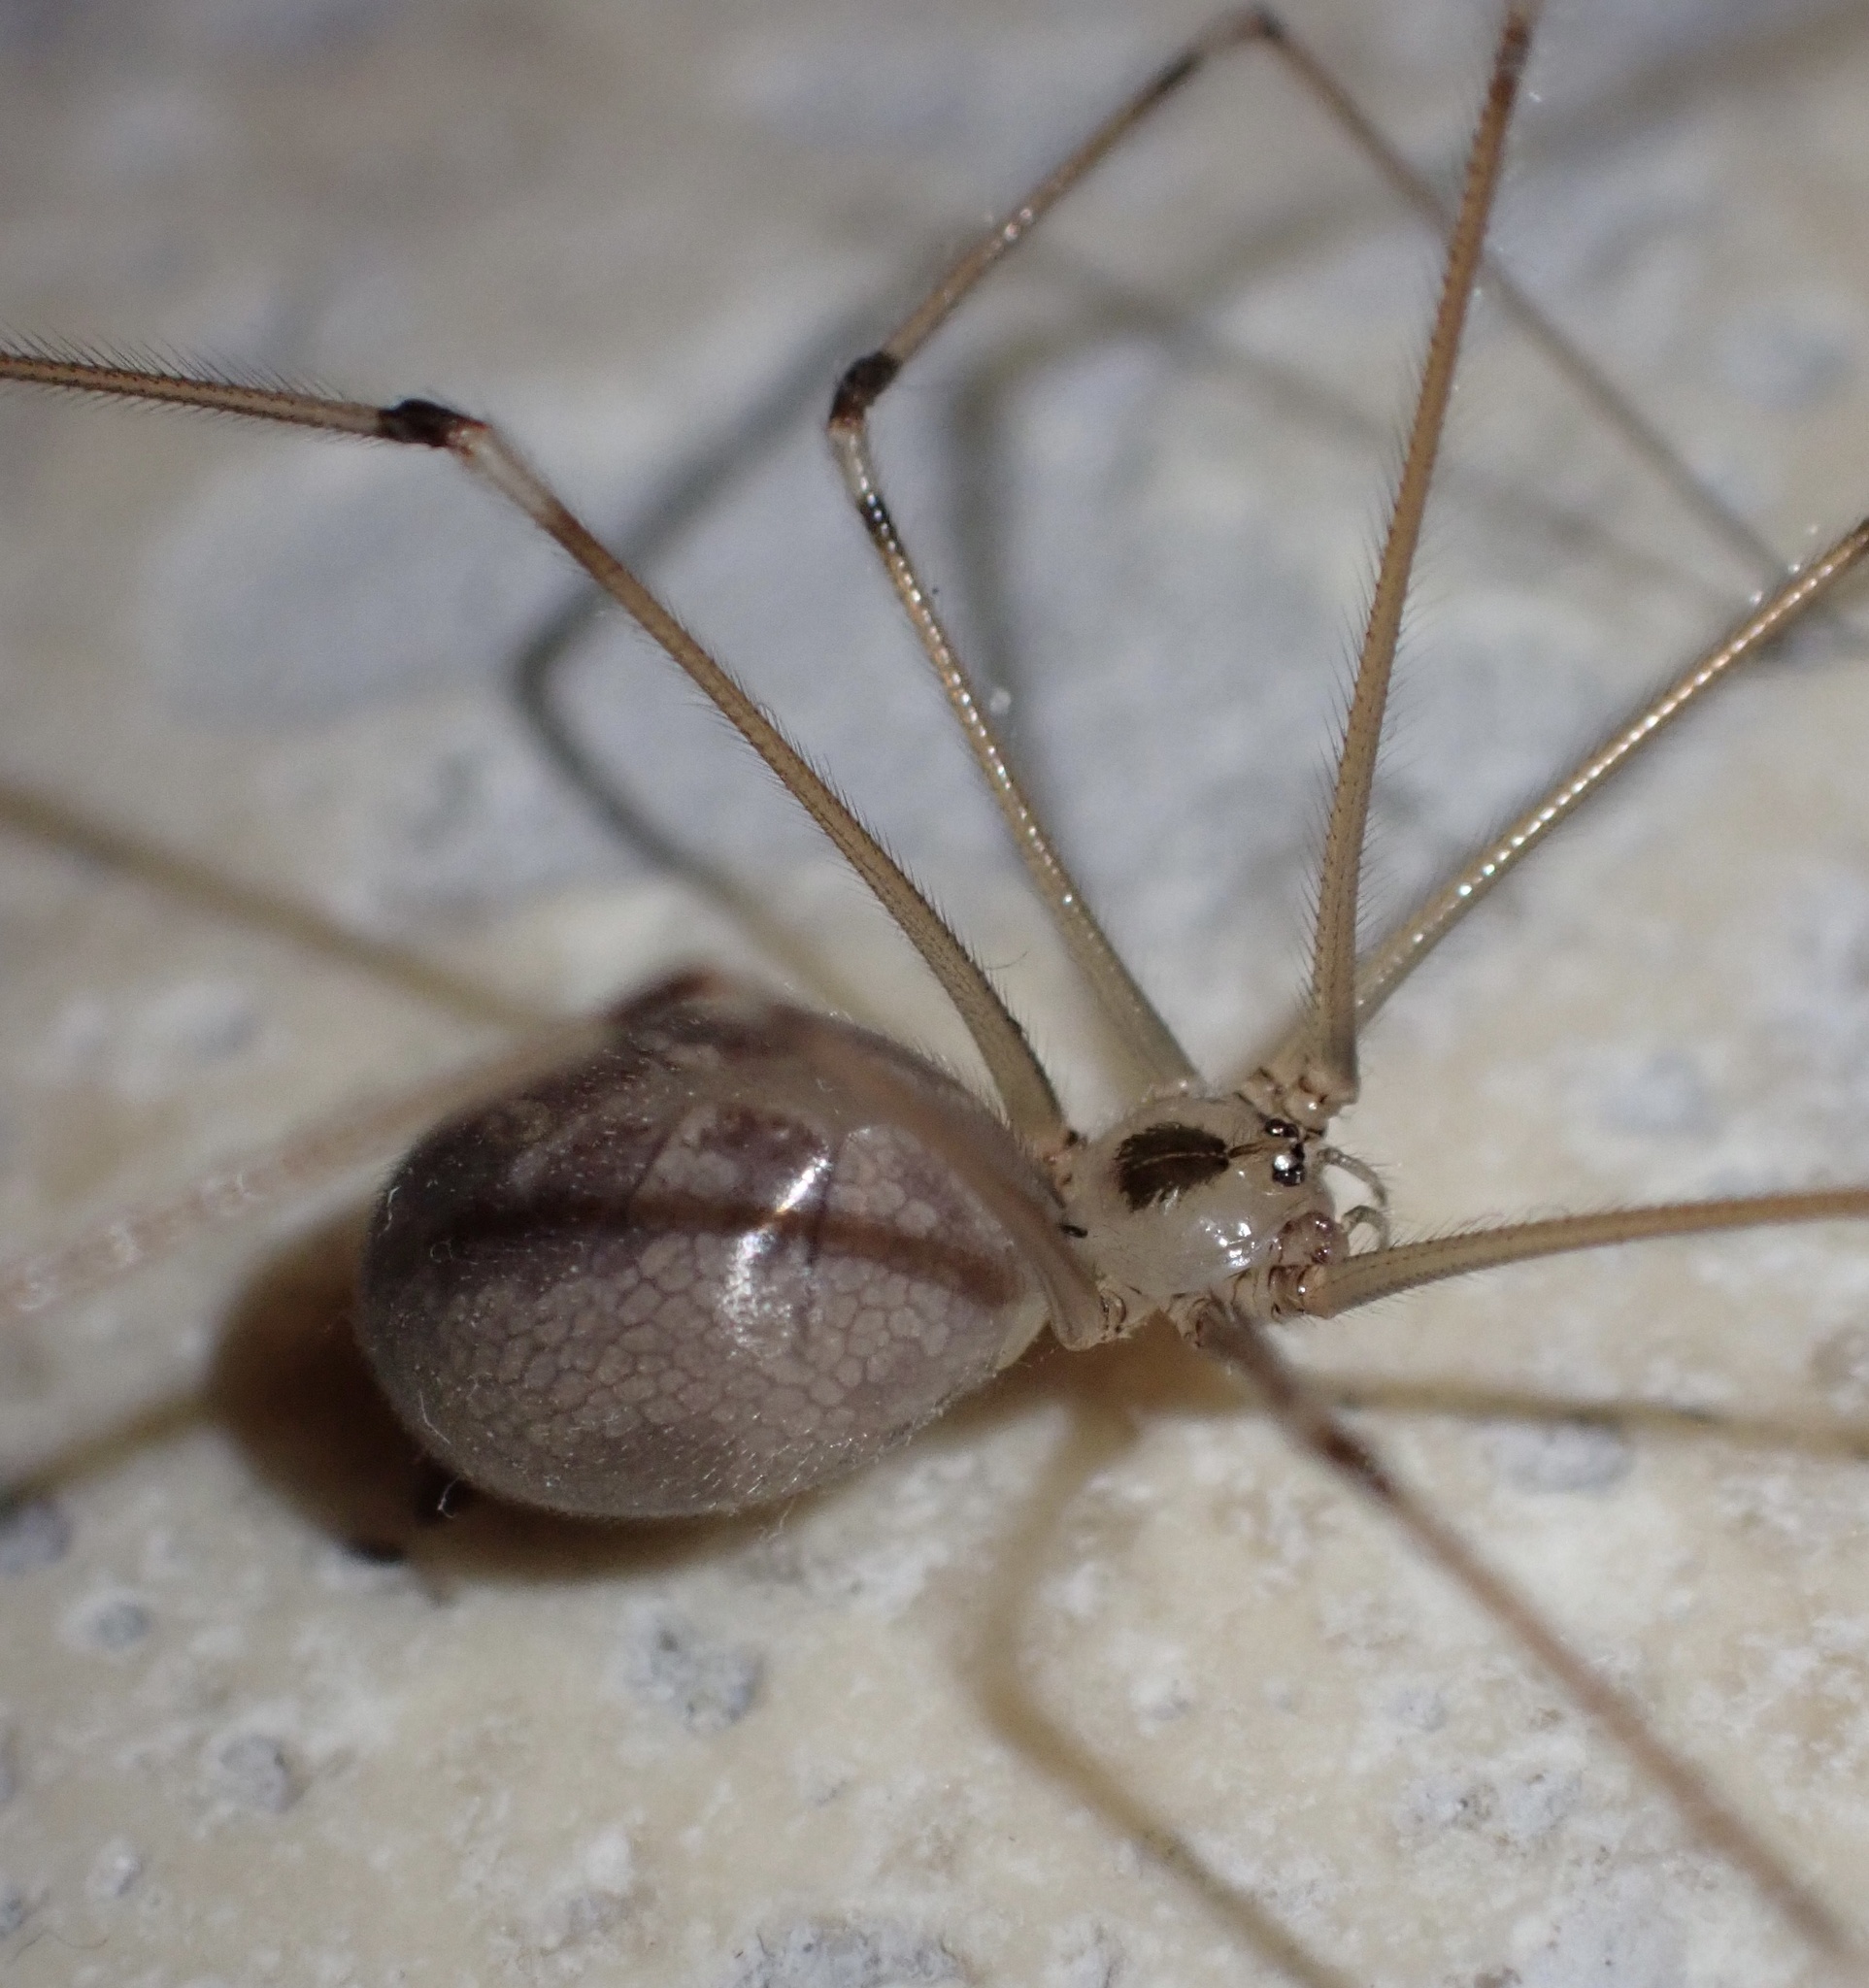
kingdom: Animalia
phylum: Arthropoda
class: Arachnida
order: Araneae
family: Pholcidae
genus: Pholcus
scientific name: Pholcus phalangioides
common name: Longbodied cellar spider
